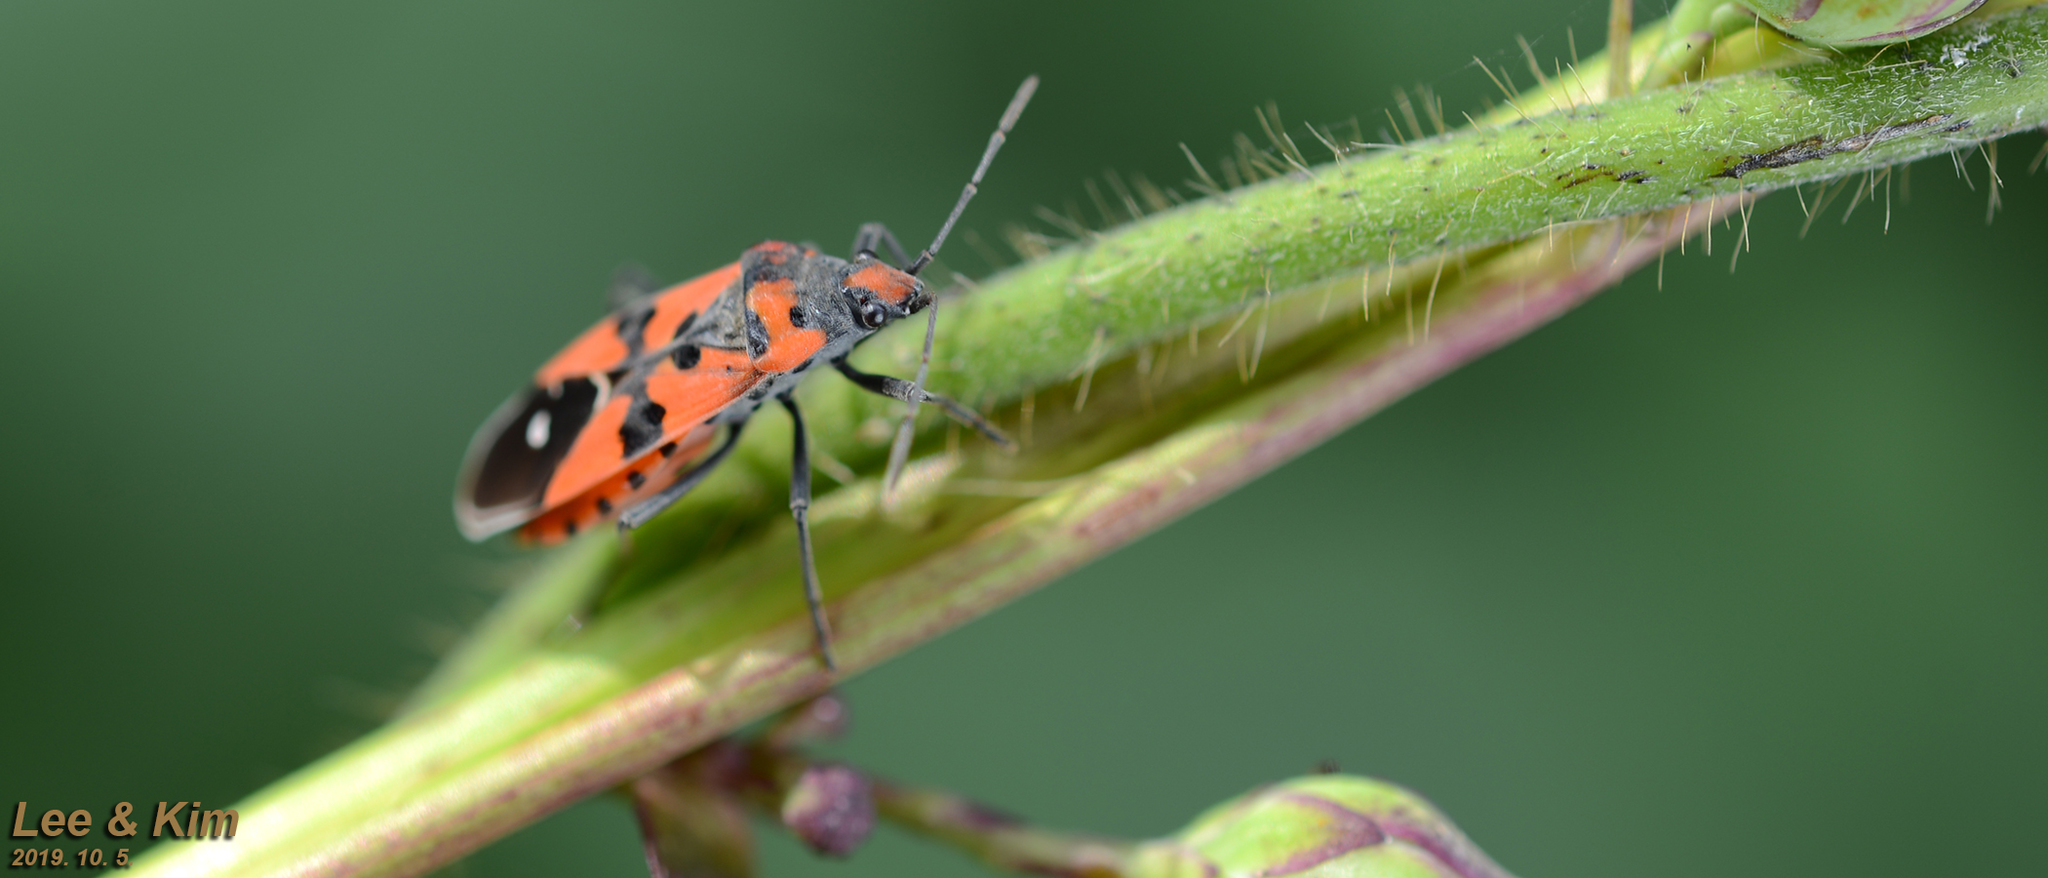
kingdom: Animalia
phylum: Arthropoda
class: Insecta
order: Hemiptera
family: Lygaeidae
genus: Lygaeus
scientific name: Lygaeus equestris
